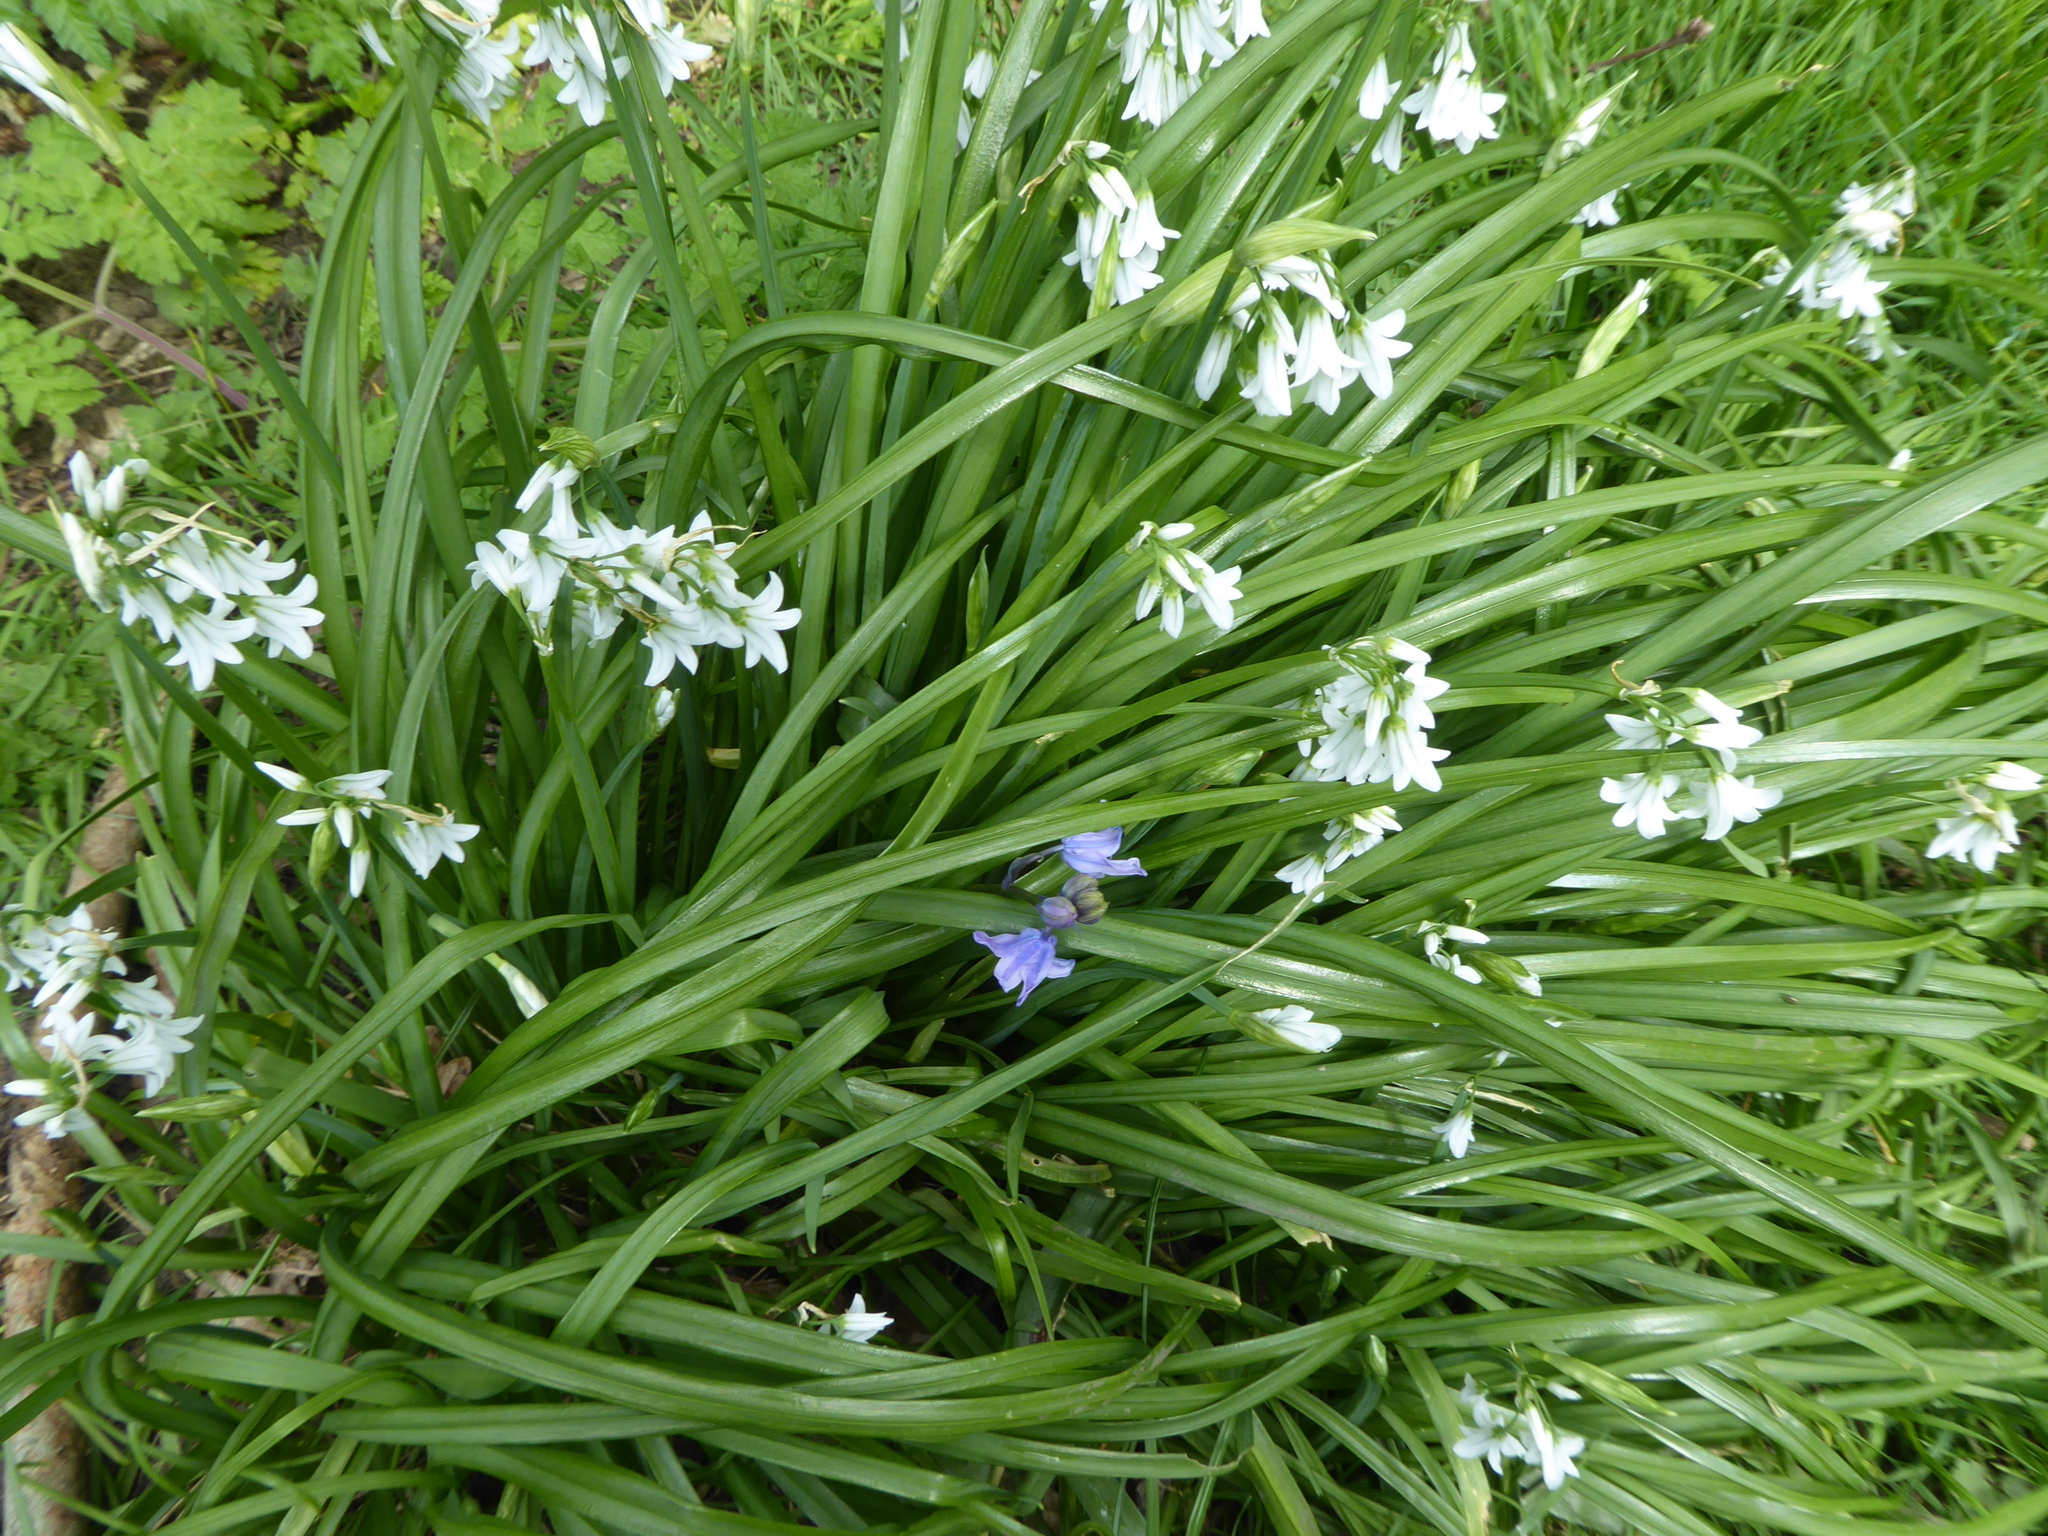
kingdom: Plantae
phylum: Tracheophyta
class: Liliopsida
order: Asparagales
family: Amaryllidaceae
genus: Allium
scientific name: Allium triquetrum
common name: Three-cornered garlic
